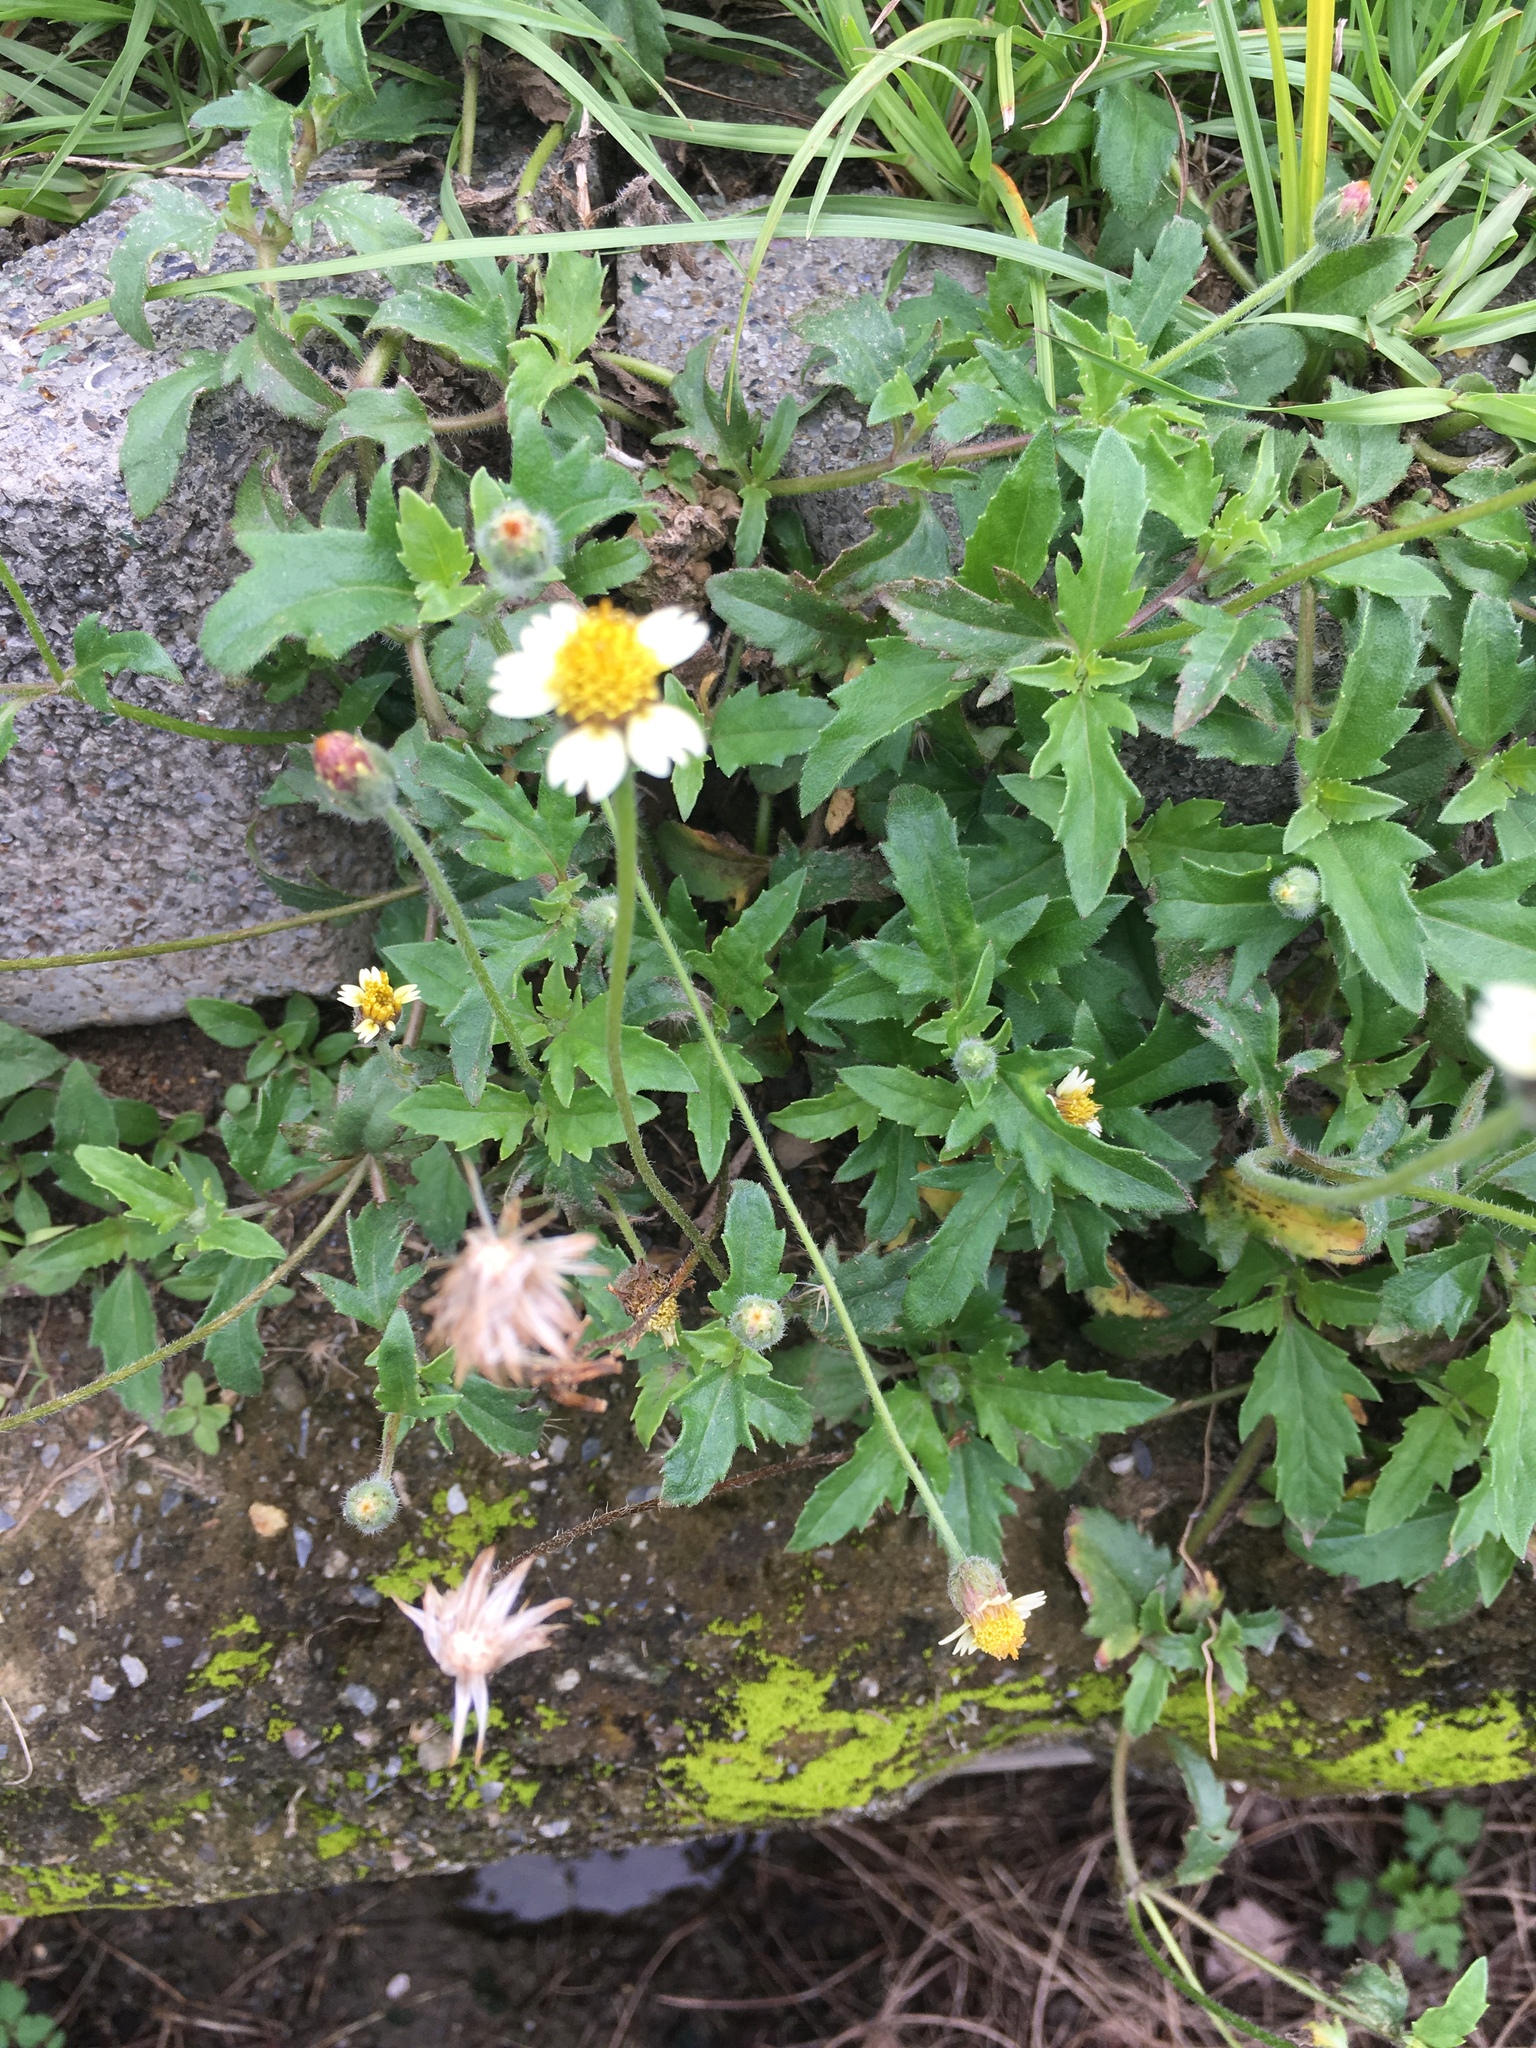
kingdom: Plantae
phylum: Tracheophyta
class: Magnoliopsida
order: Asterales
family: Asteraceae
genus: Tridax
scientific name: Tridax procumbens
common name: Coatbuttons
